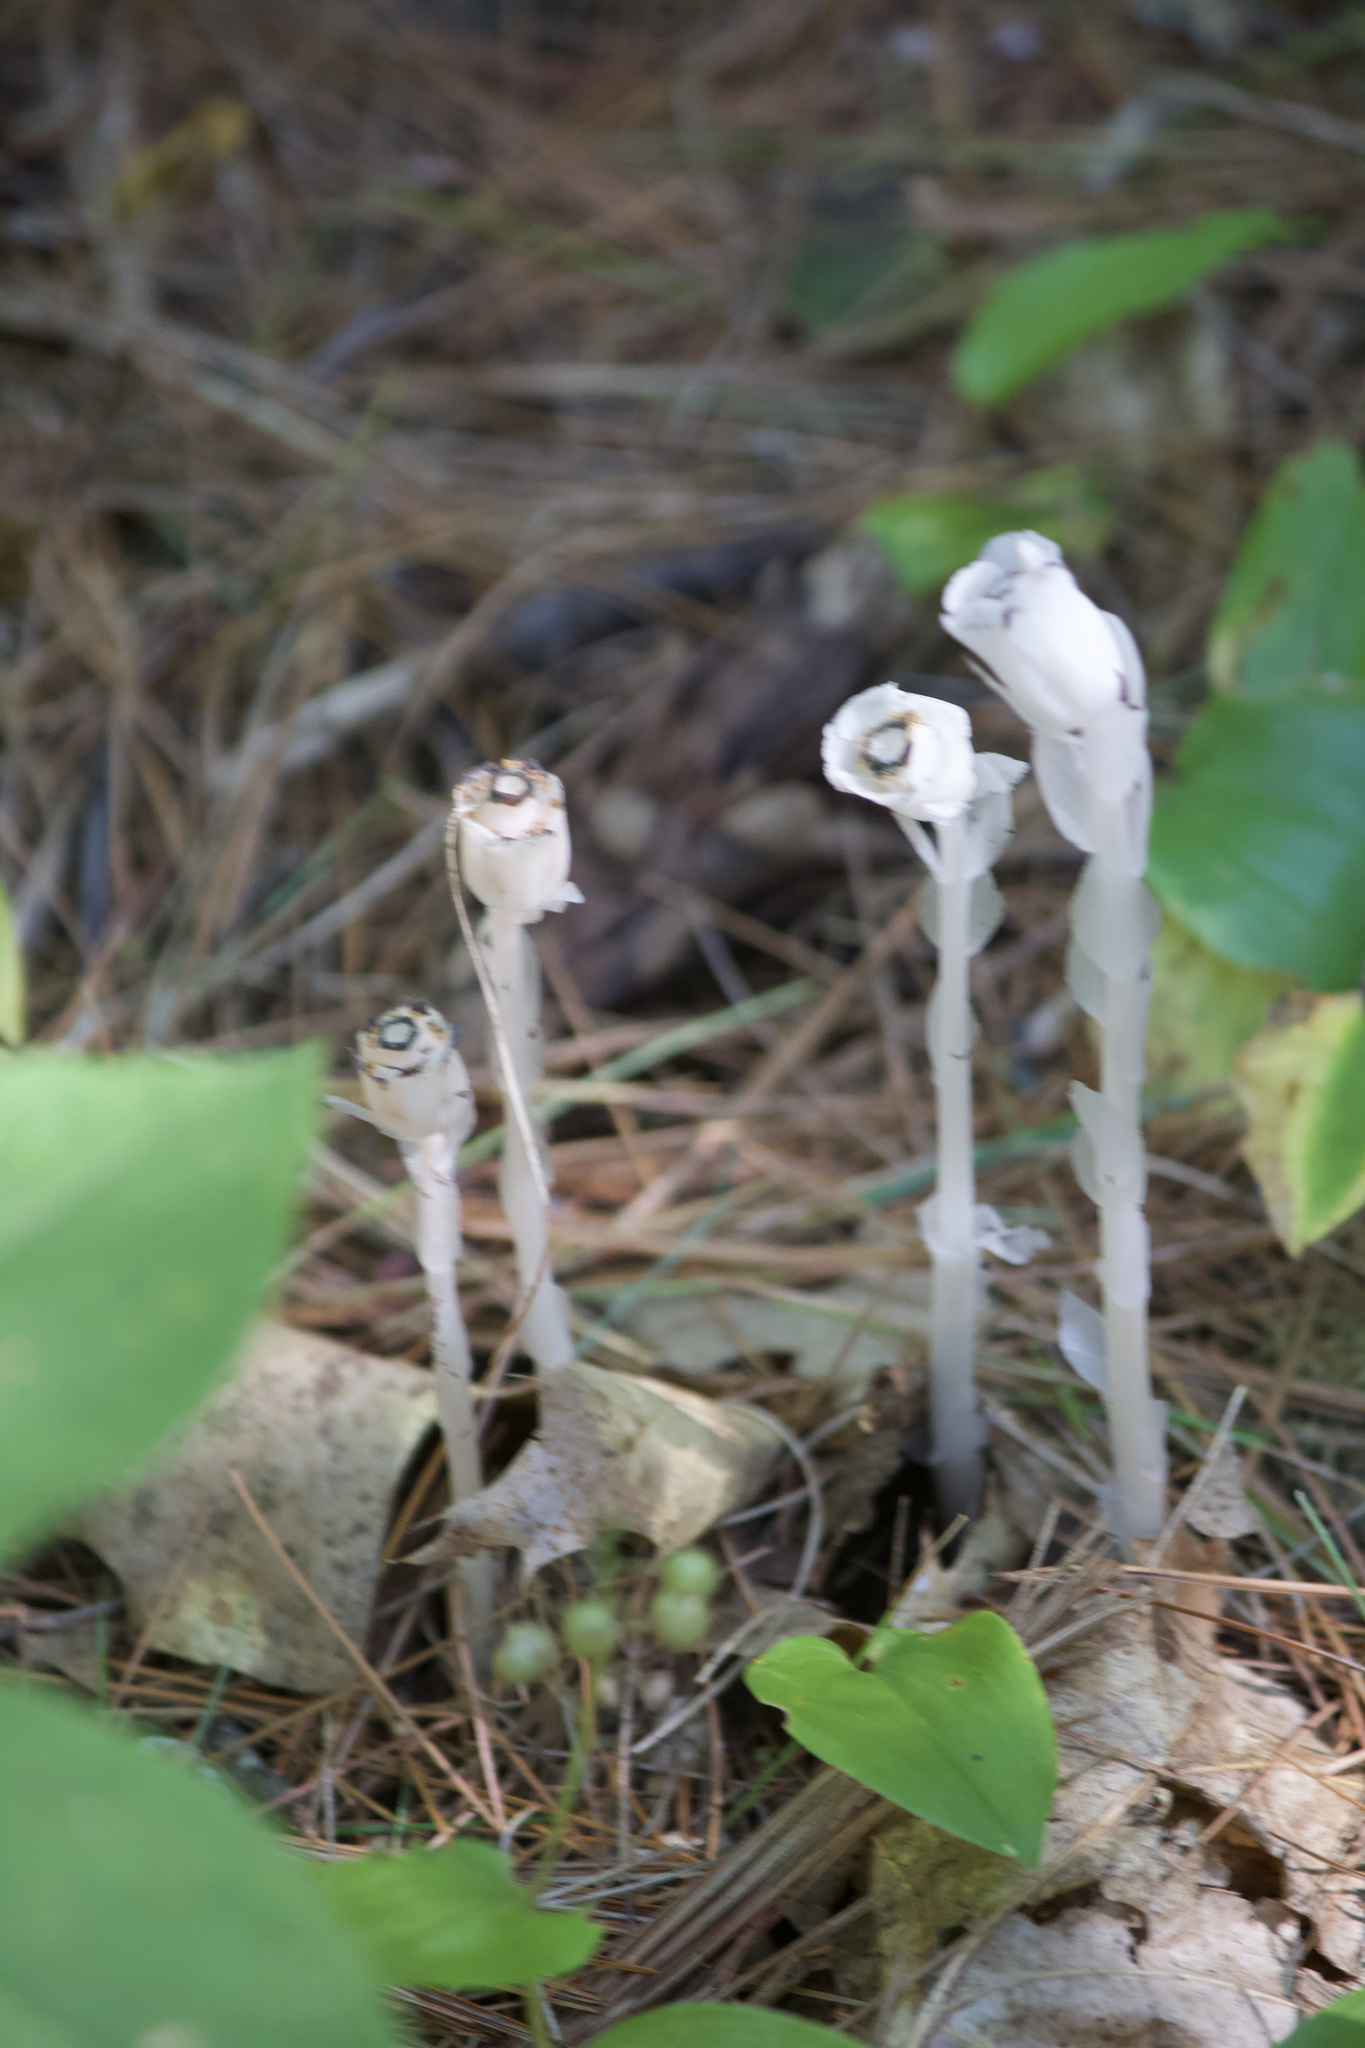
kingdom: Plantae
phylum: Tracheophyta
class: Magnoliopsida
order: Ericales
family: Ericaceae
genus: Monotropa
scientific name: Monotropa uniflora
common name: Convulsion root
